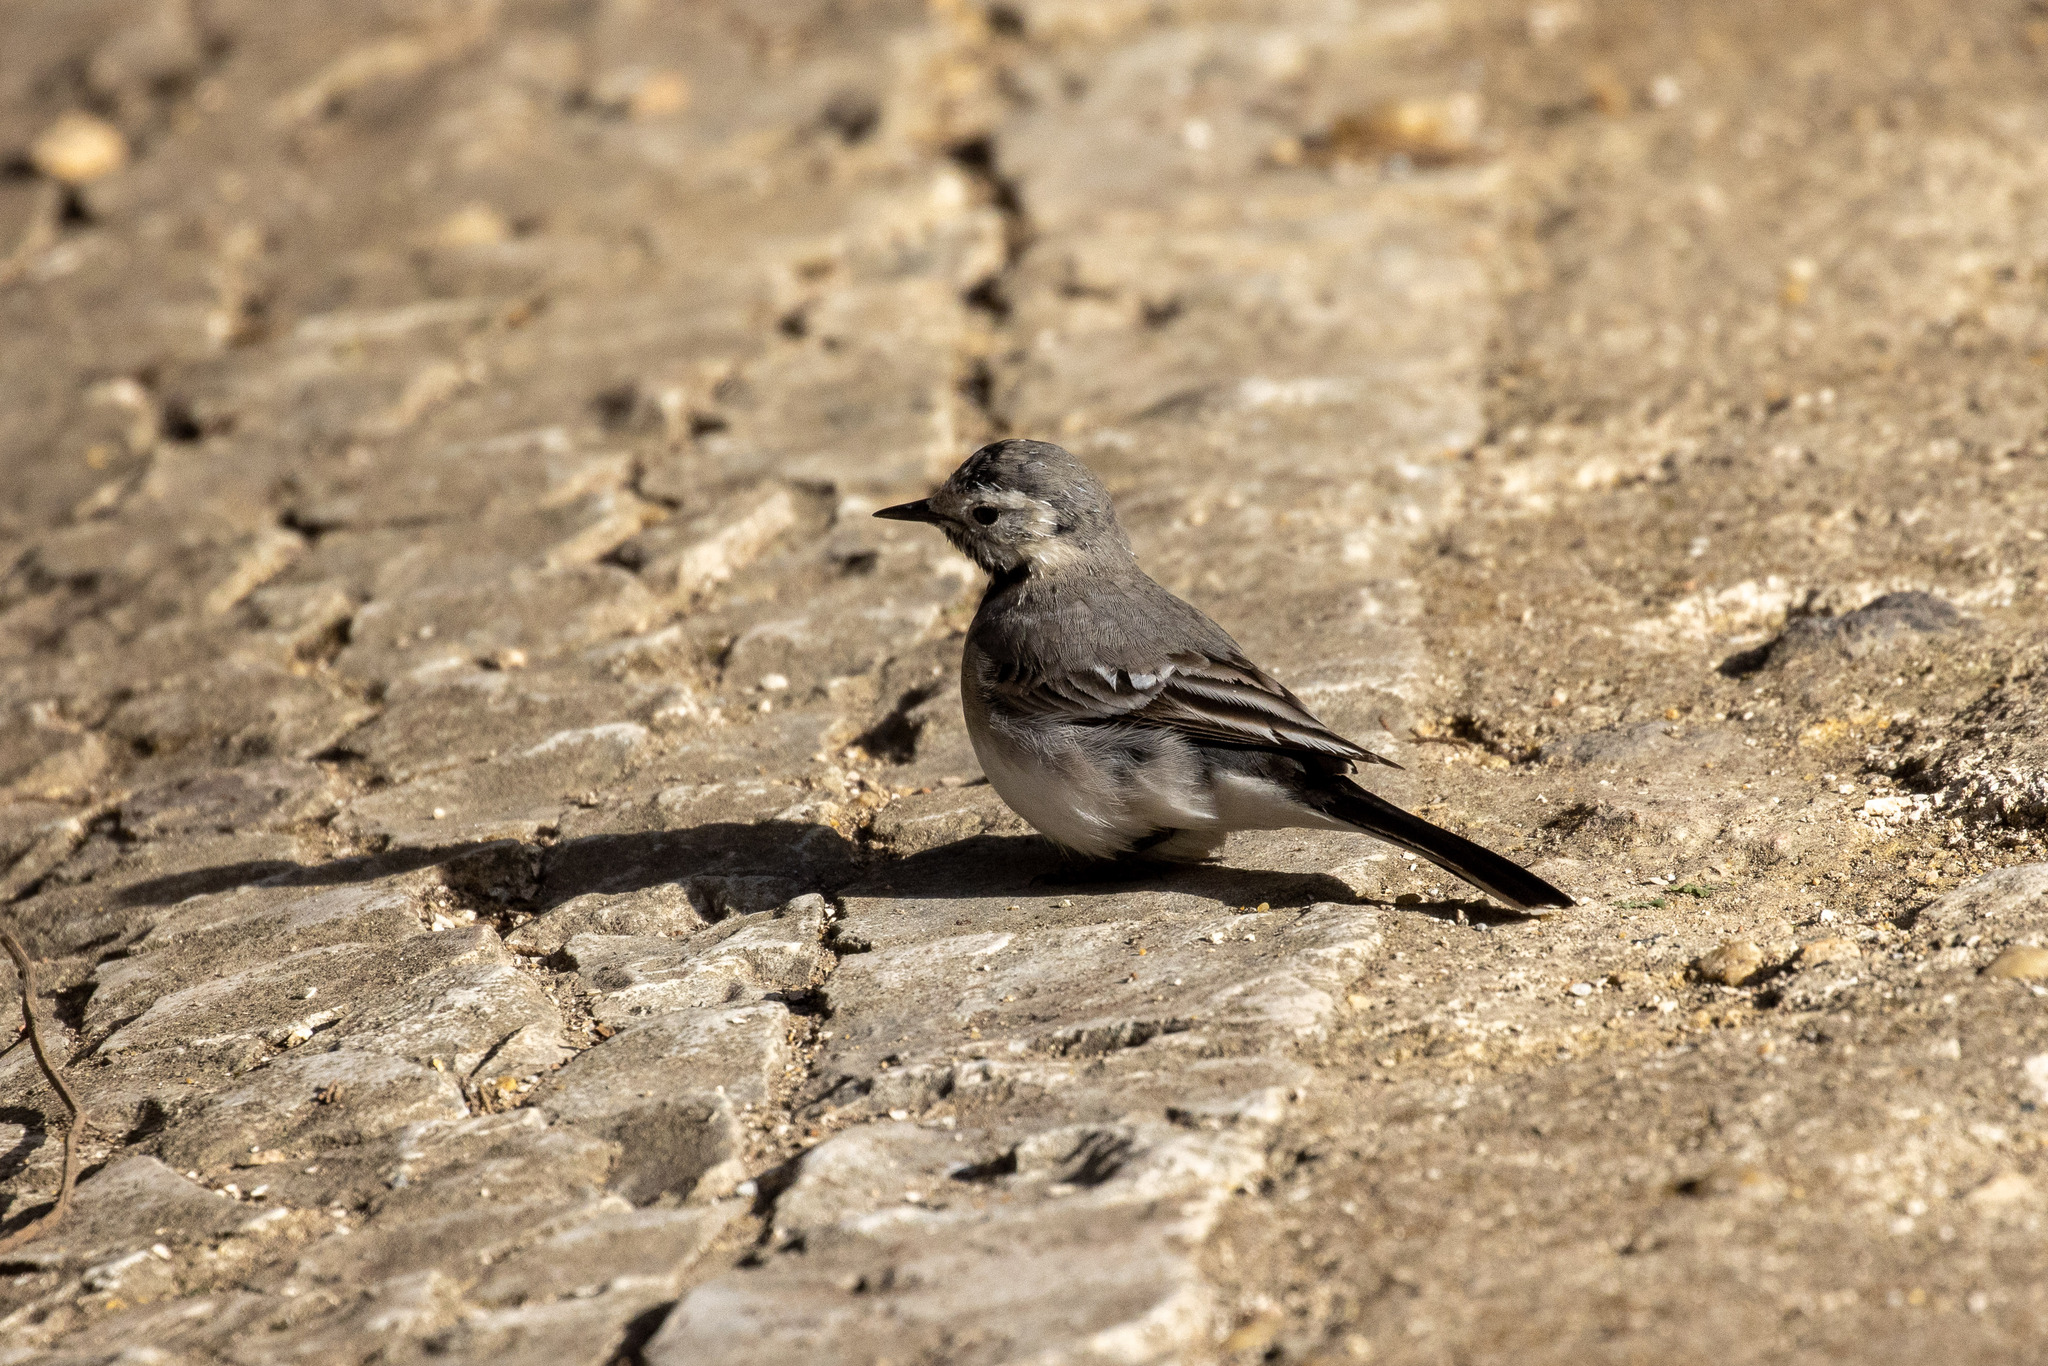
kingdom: Animalia
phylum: Chordata
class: Aves
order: Passeriformes
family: Motacillidae
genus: Motacilla
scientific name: Motacilla alba
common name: White wagtail
